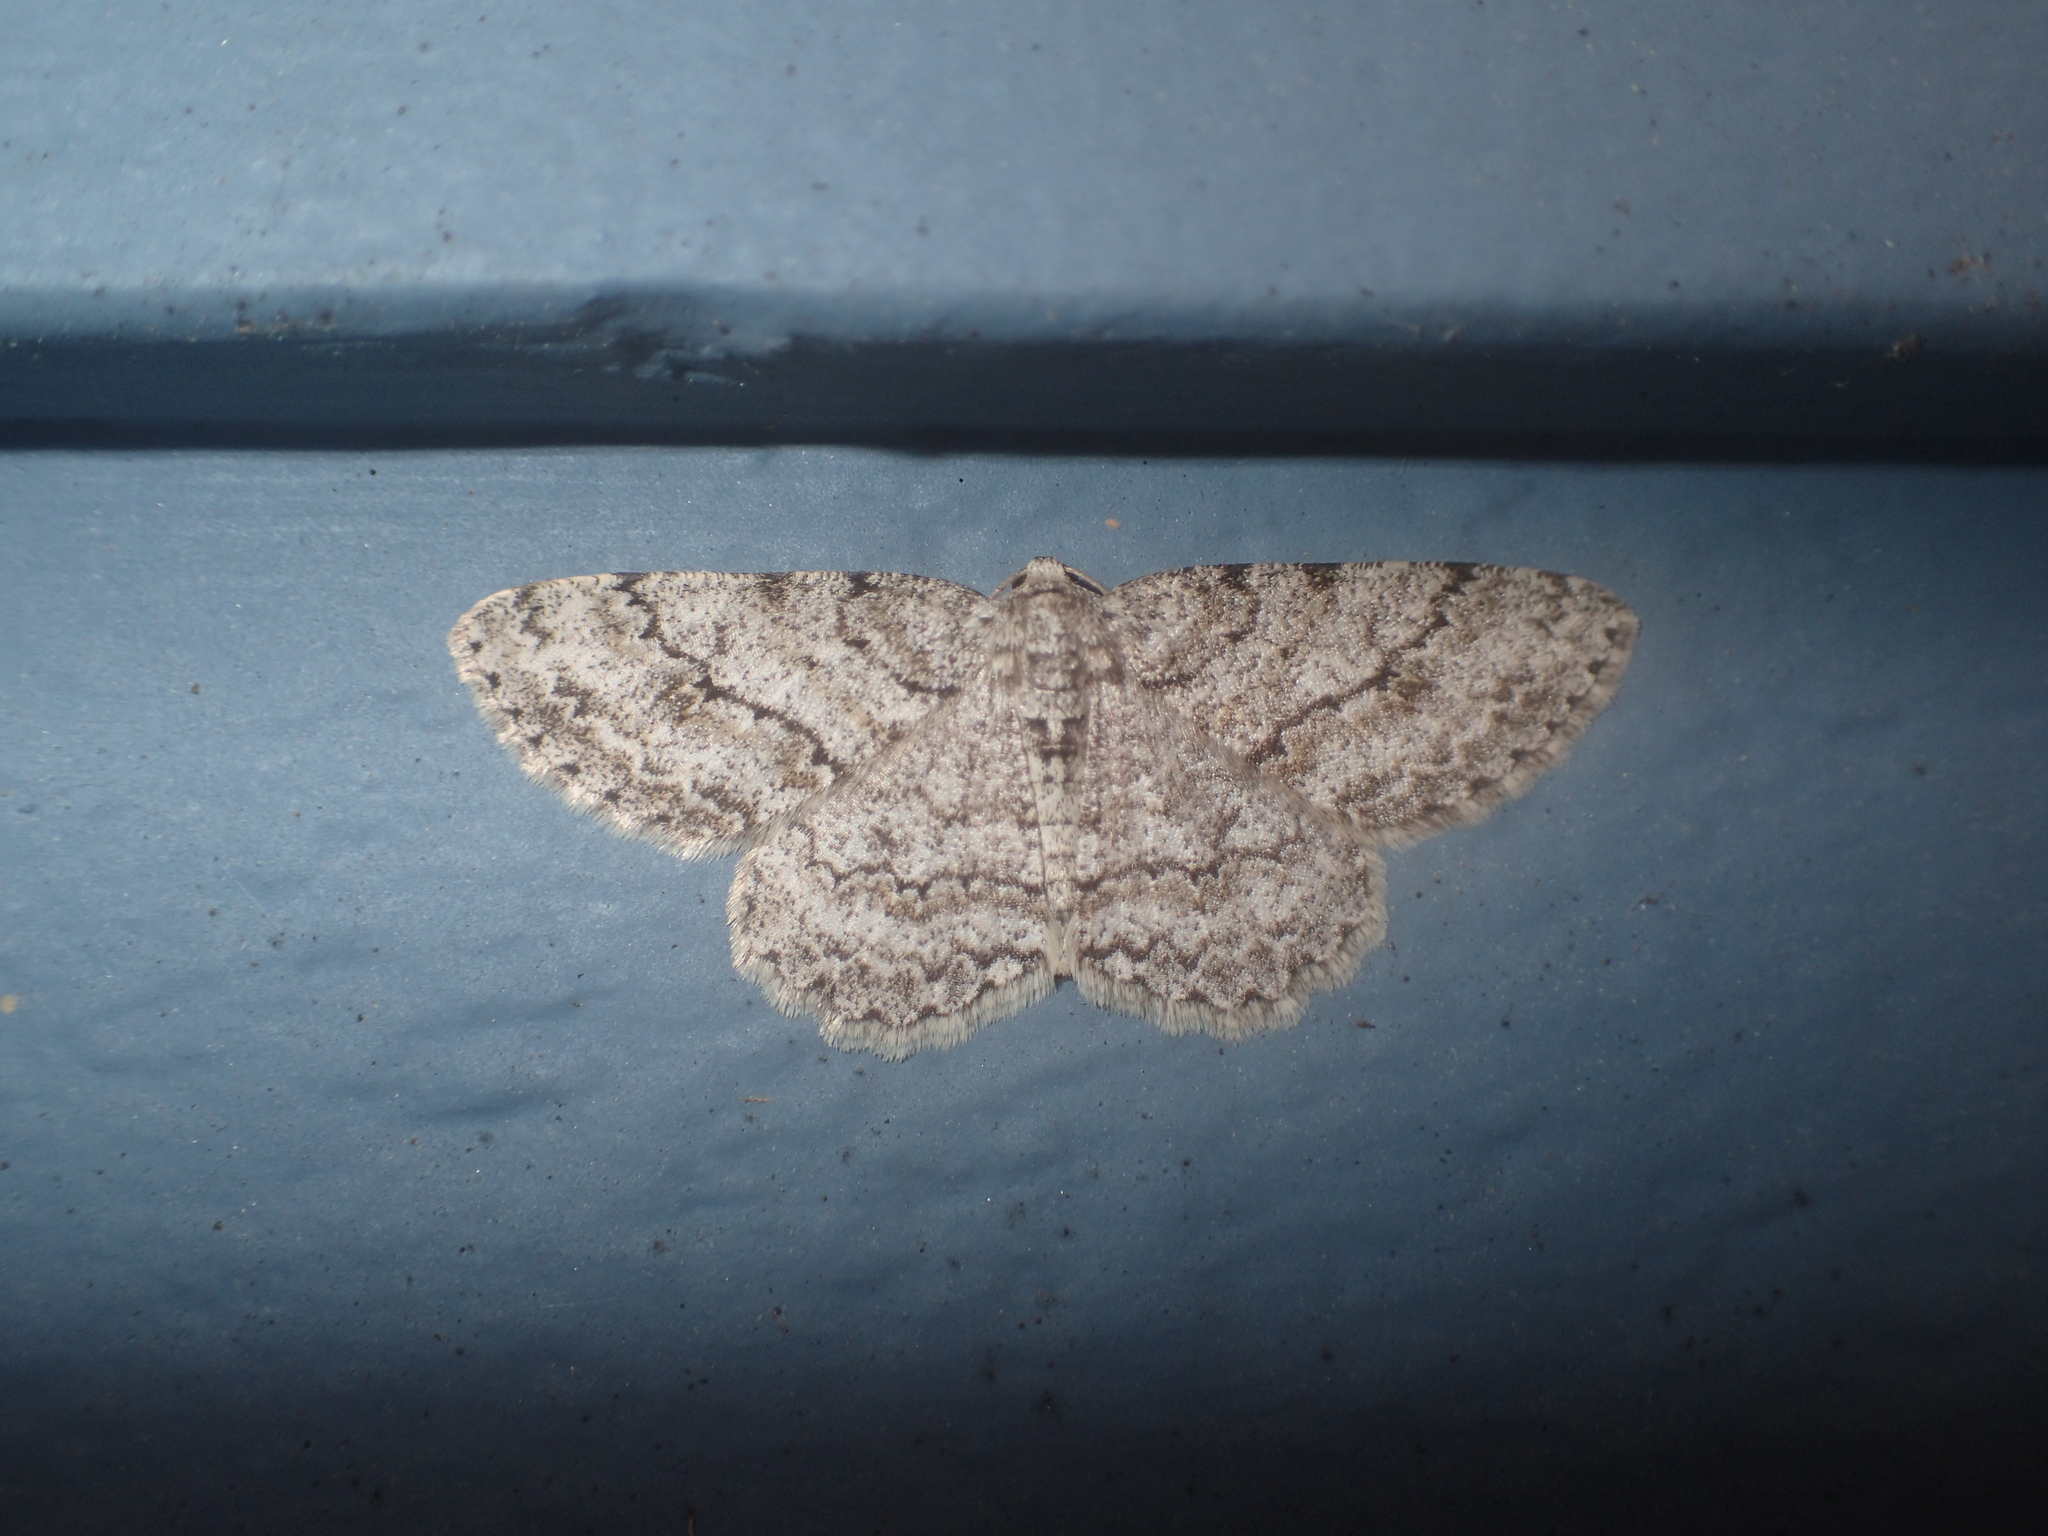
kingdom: Animalia
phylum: Arthropoda
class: Insecta
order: Lepidoptera
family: Geometridae
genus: Ectropis
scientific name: Ectropis crepuscularia
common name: Engrailed
